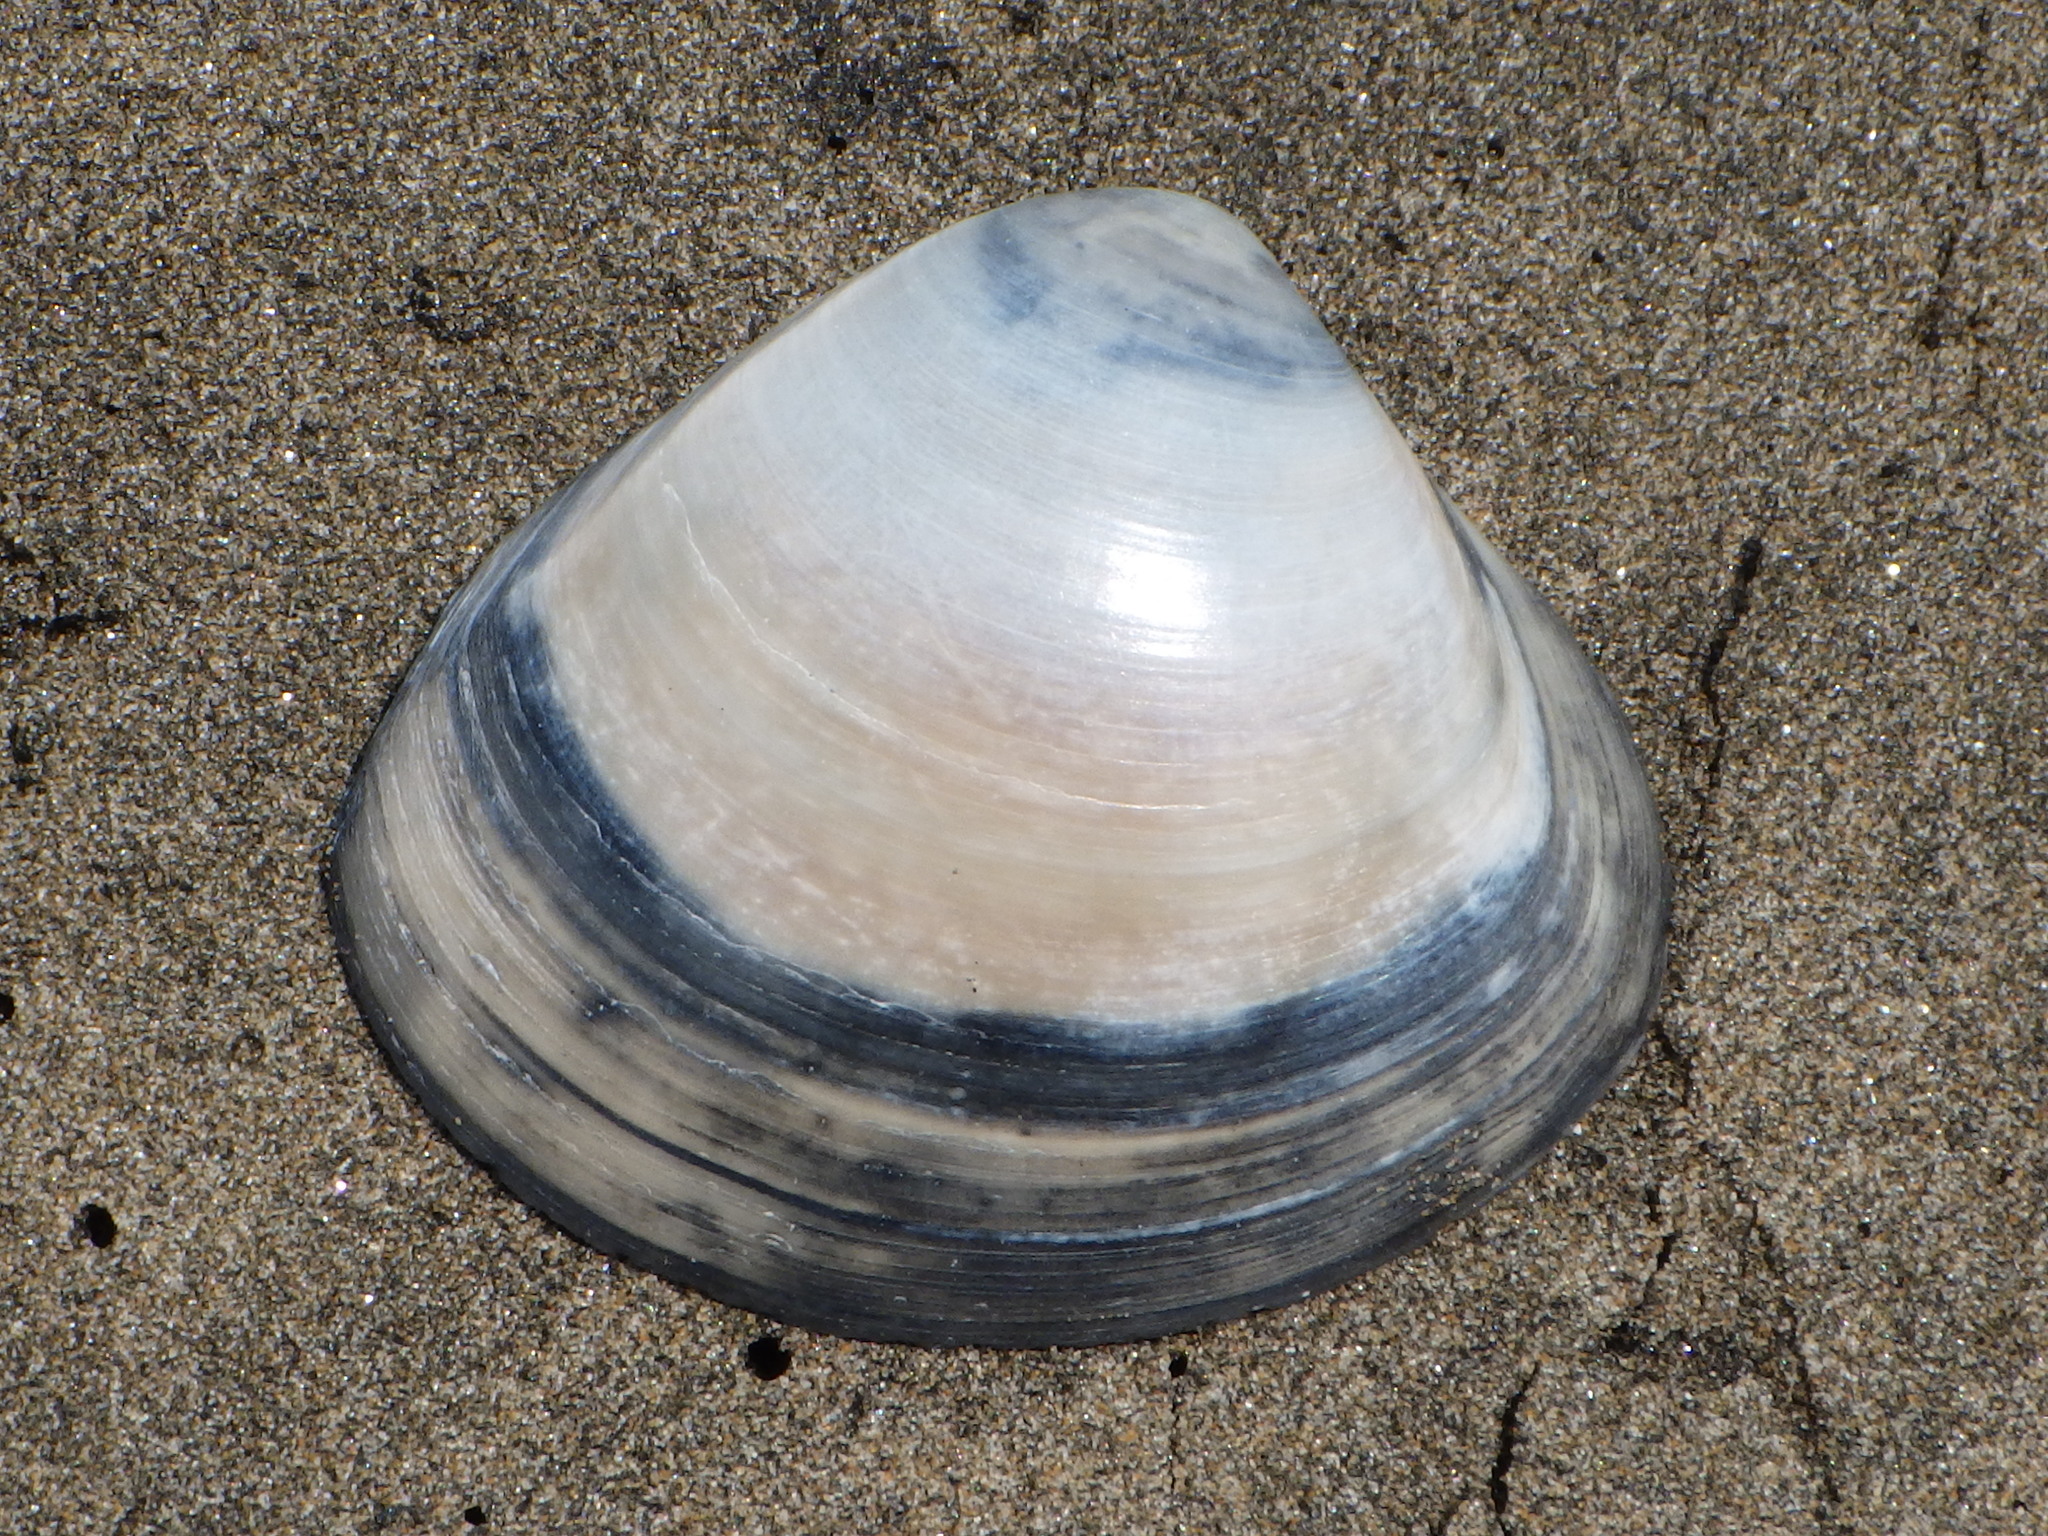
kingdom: Animalia
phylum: Mollusca
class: Bivalvia
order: Venerida
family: Mactridae
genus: Spisula
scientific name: Spisula murchisoni
